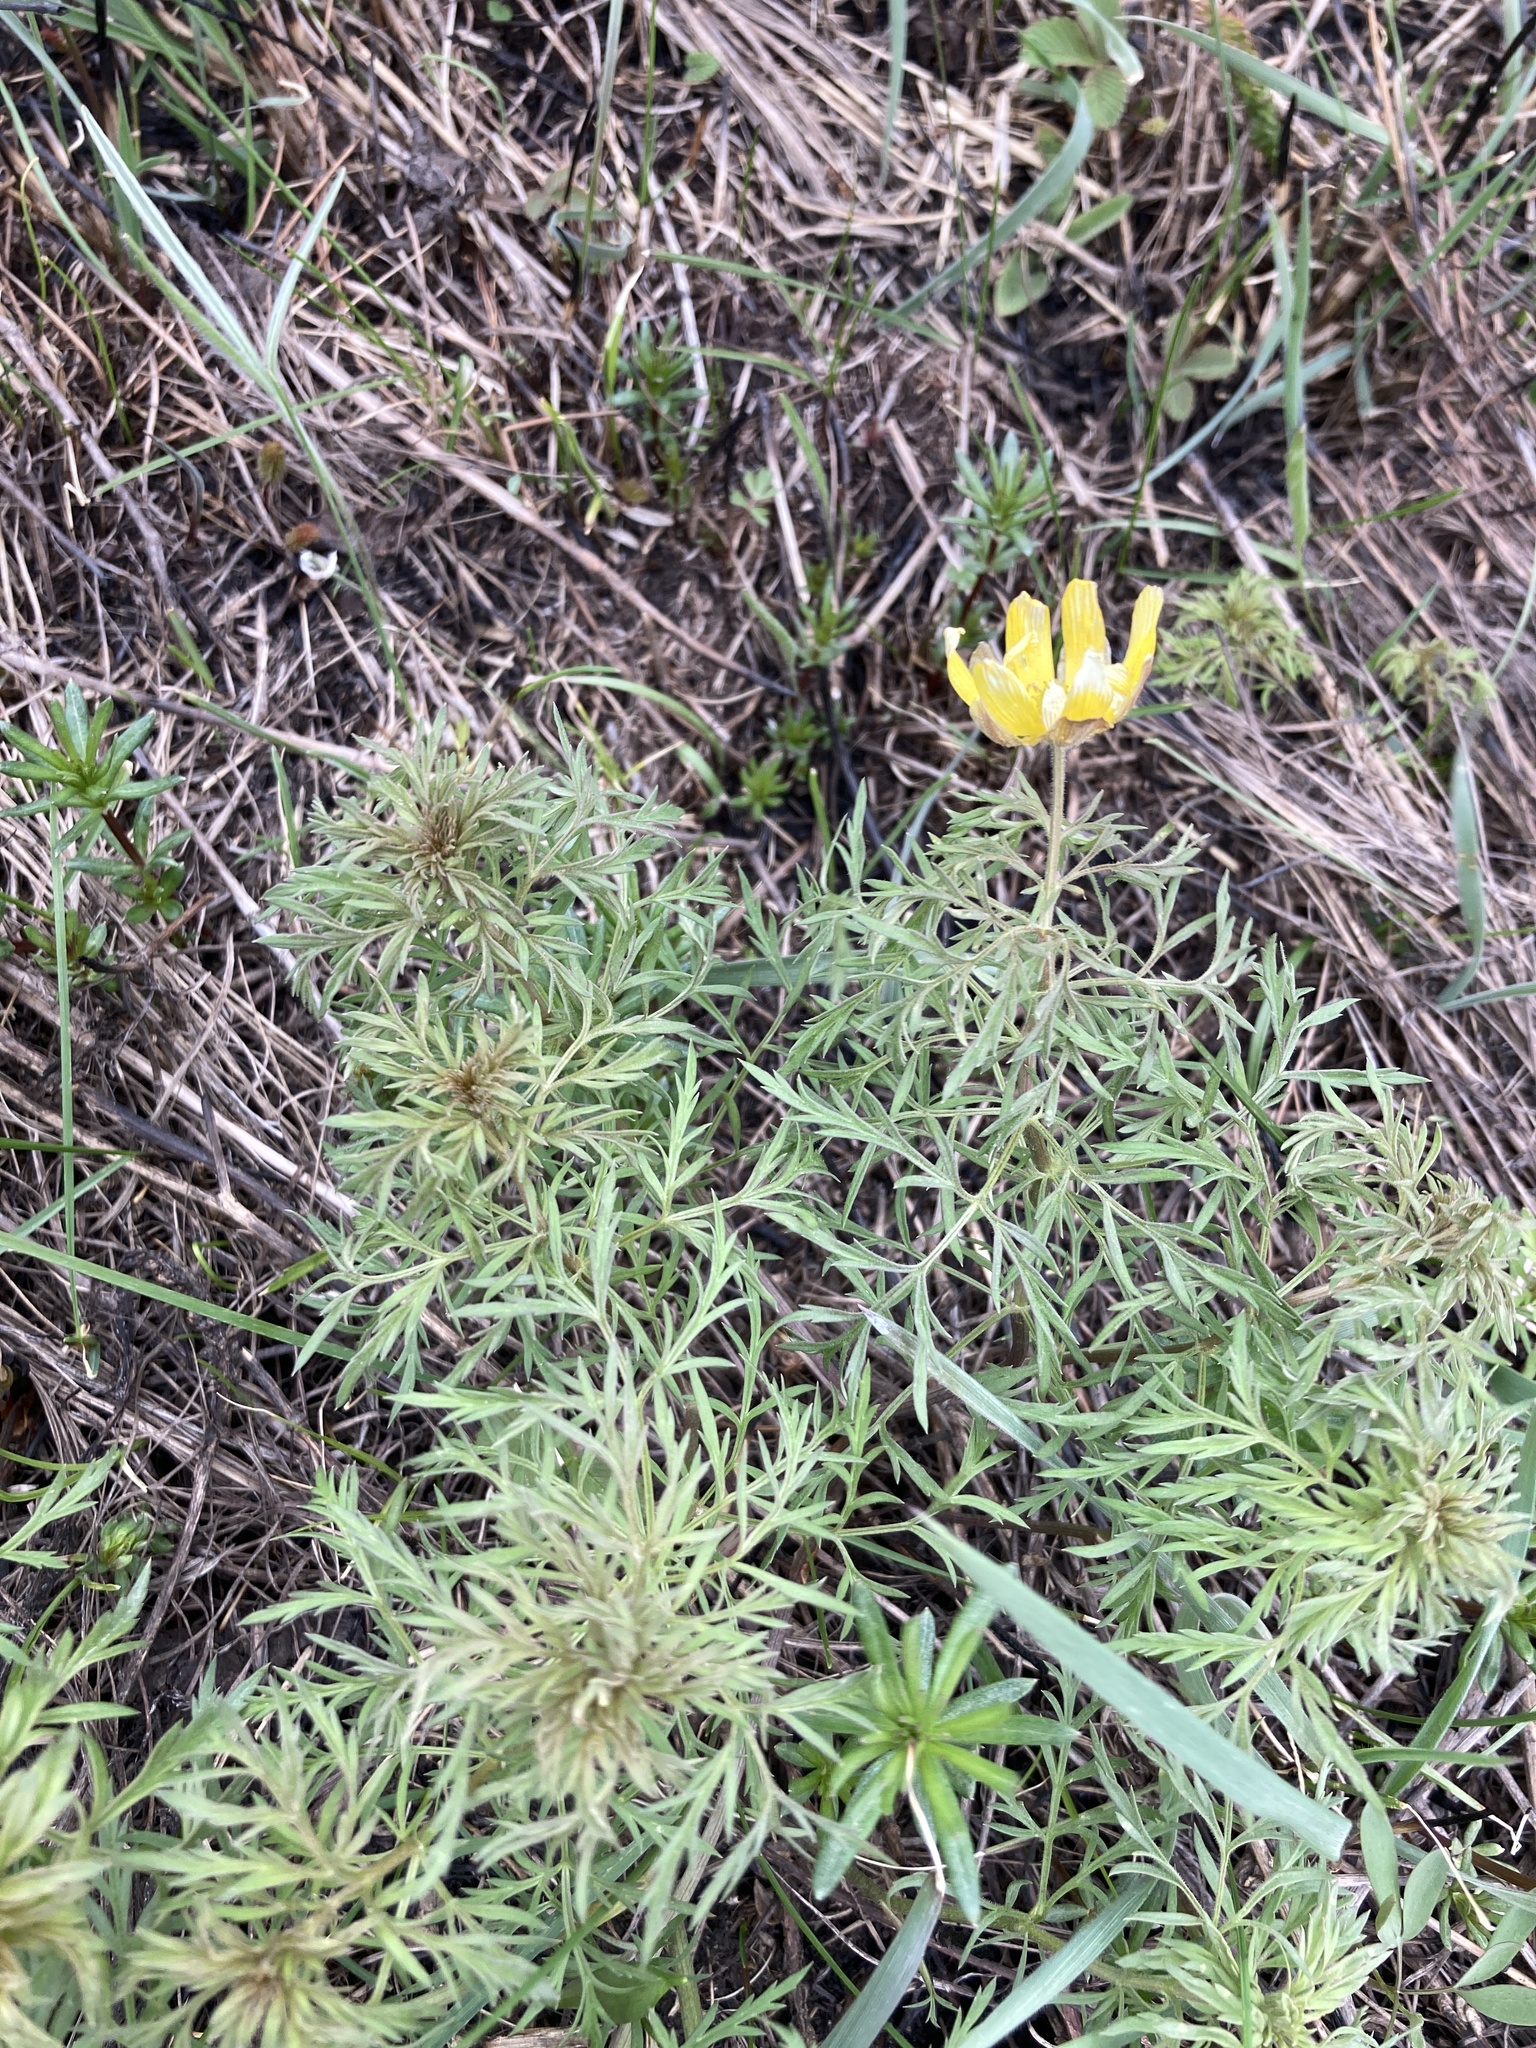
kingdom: Plantae
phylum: Tracheophyta
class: Magnoliopsida
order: Ranunculales
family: Ranunculaceae
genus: Adonis
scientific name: Adonis volgensis
